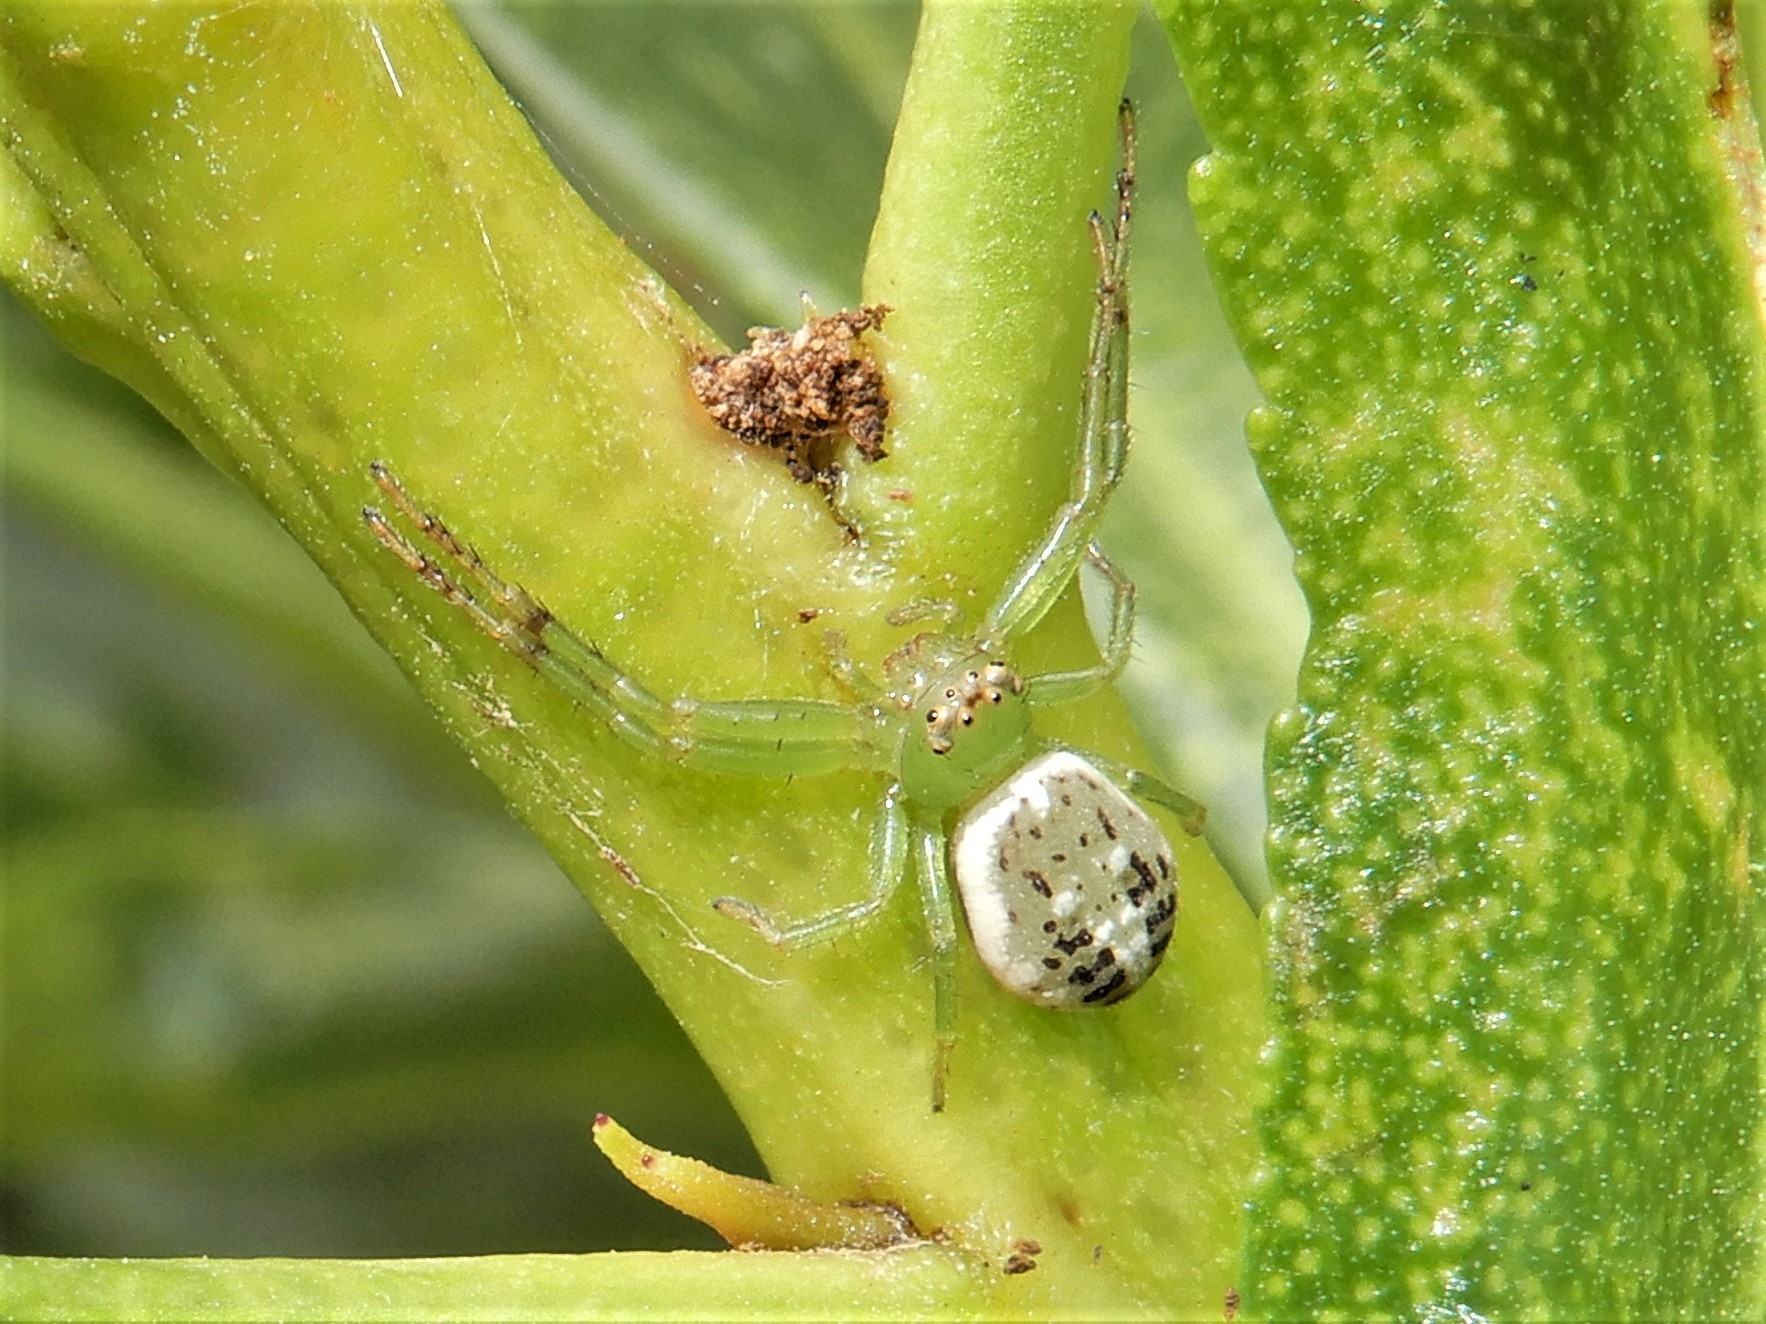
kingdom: Animalia
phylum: Arthropoda
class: Arachnida
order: Araneae
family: Thomisidae
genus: Diaea
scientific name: Diaea ambara
